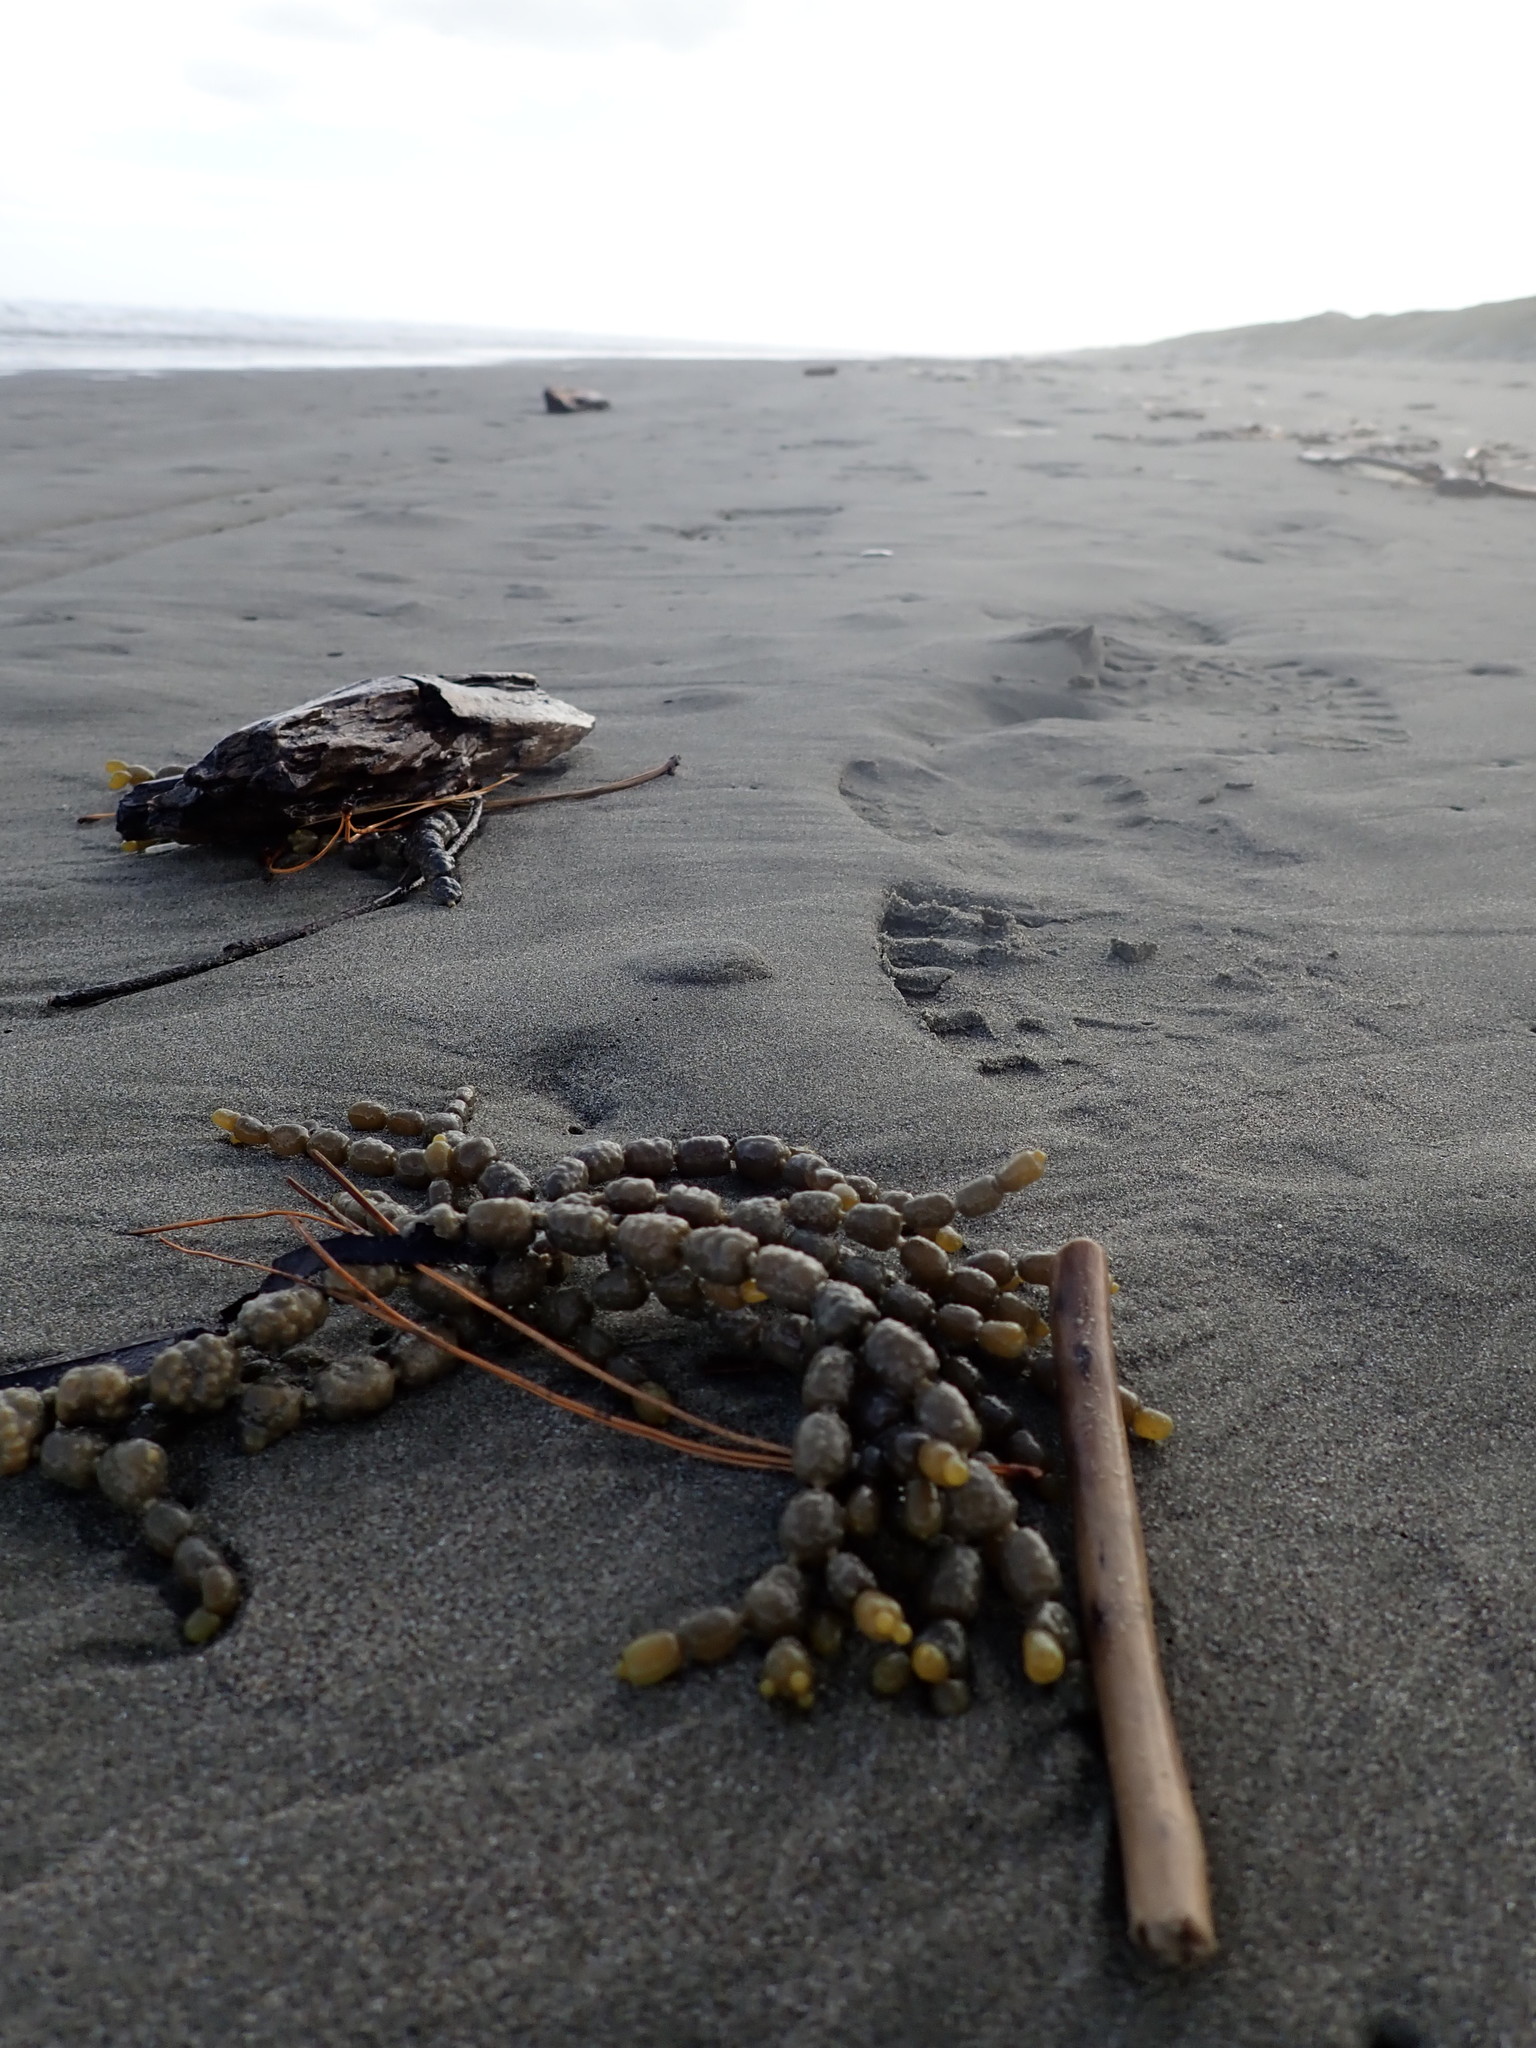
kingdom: Chromista
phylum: Ochrophyta
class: Phaeophyceae
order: Fucales
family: Hormosiraceae
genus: Hormosira
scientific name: Hormosira banksii
